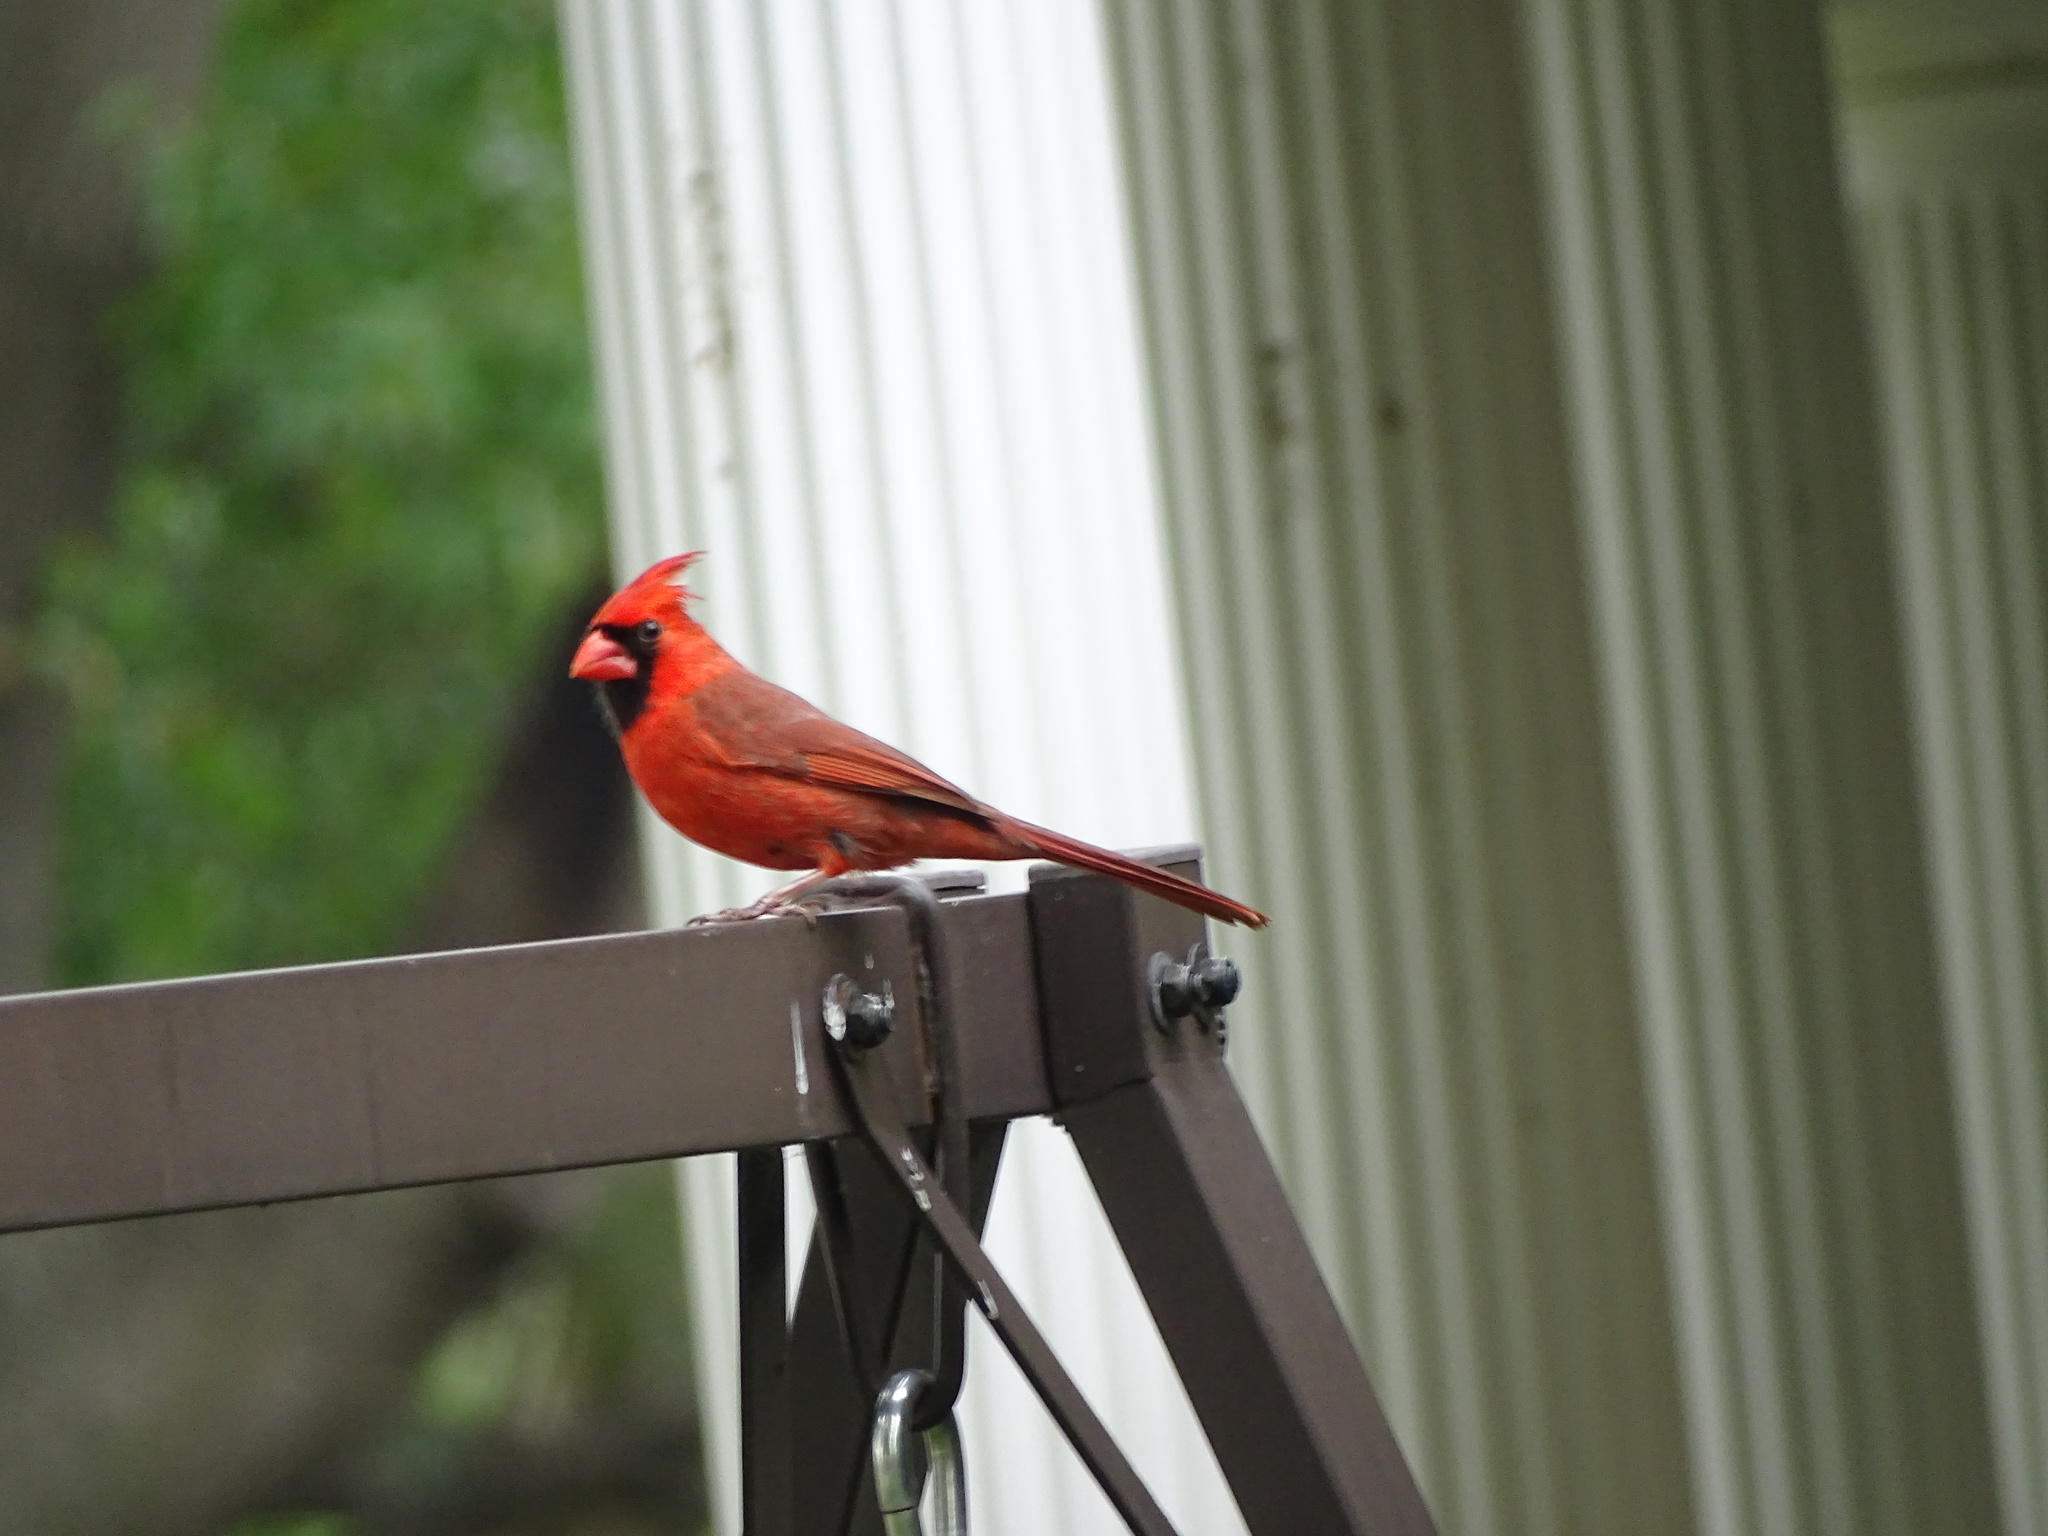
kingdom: Animalia
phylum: Chordata
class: Aves
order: Passeriformes
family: Cardinalidae
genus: Cardinalis
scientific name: Cardinalis cardinalis
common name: Northern cardinal
